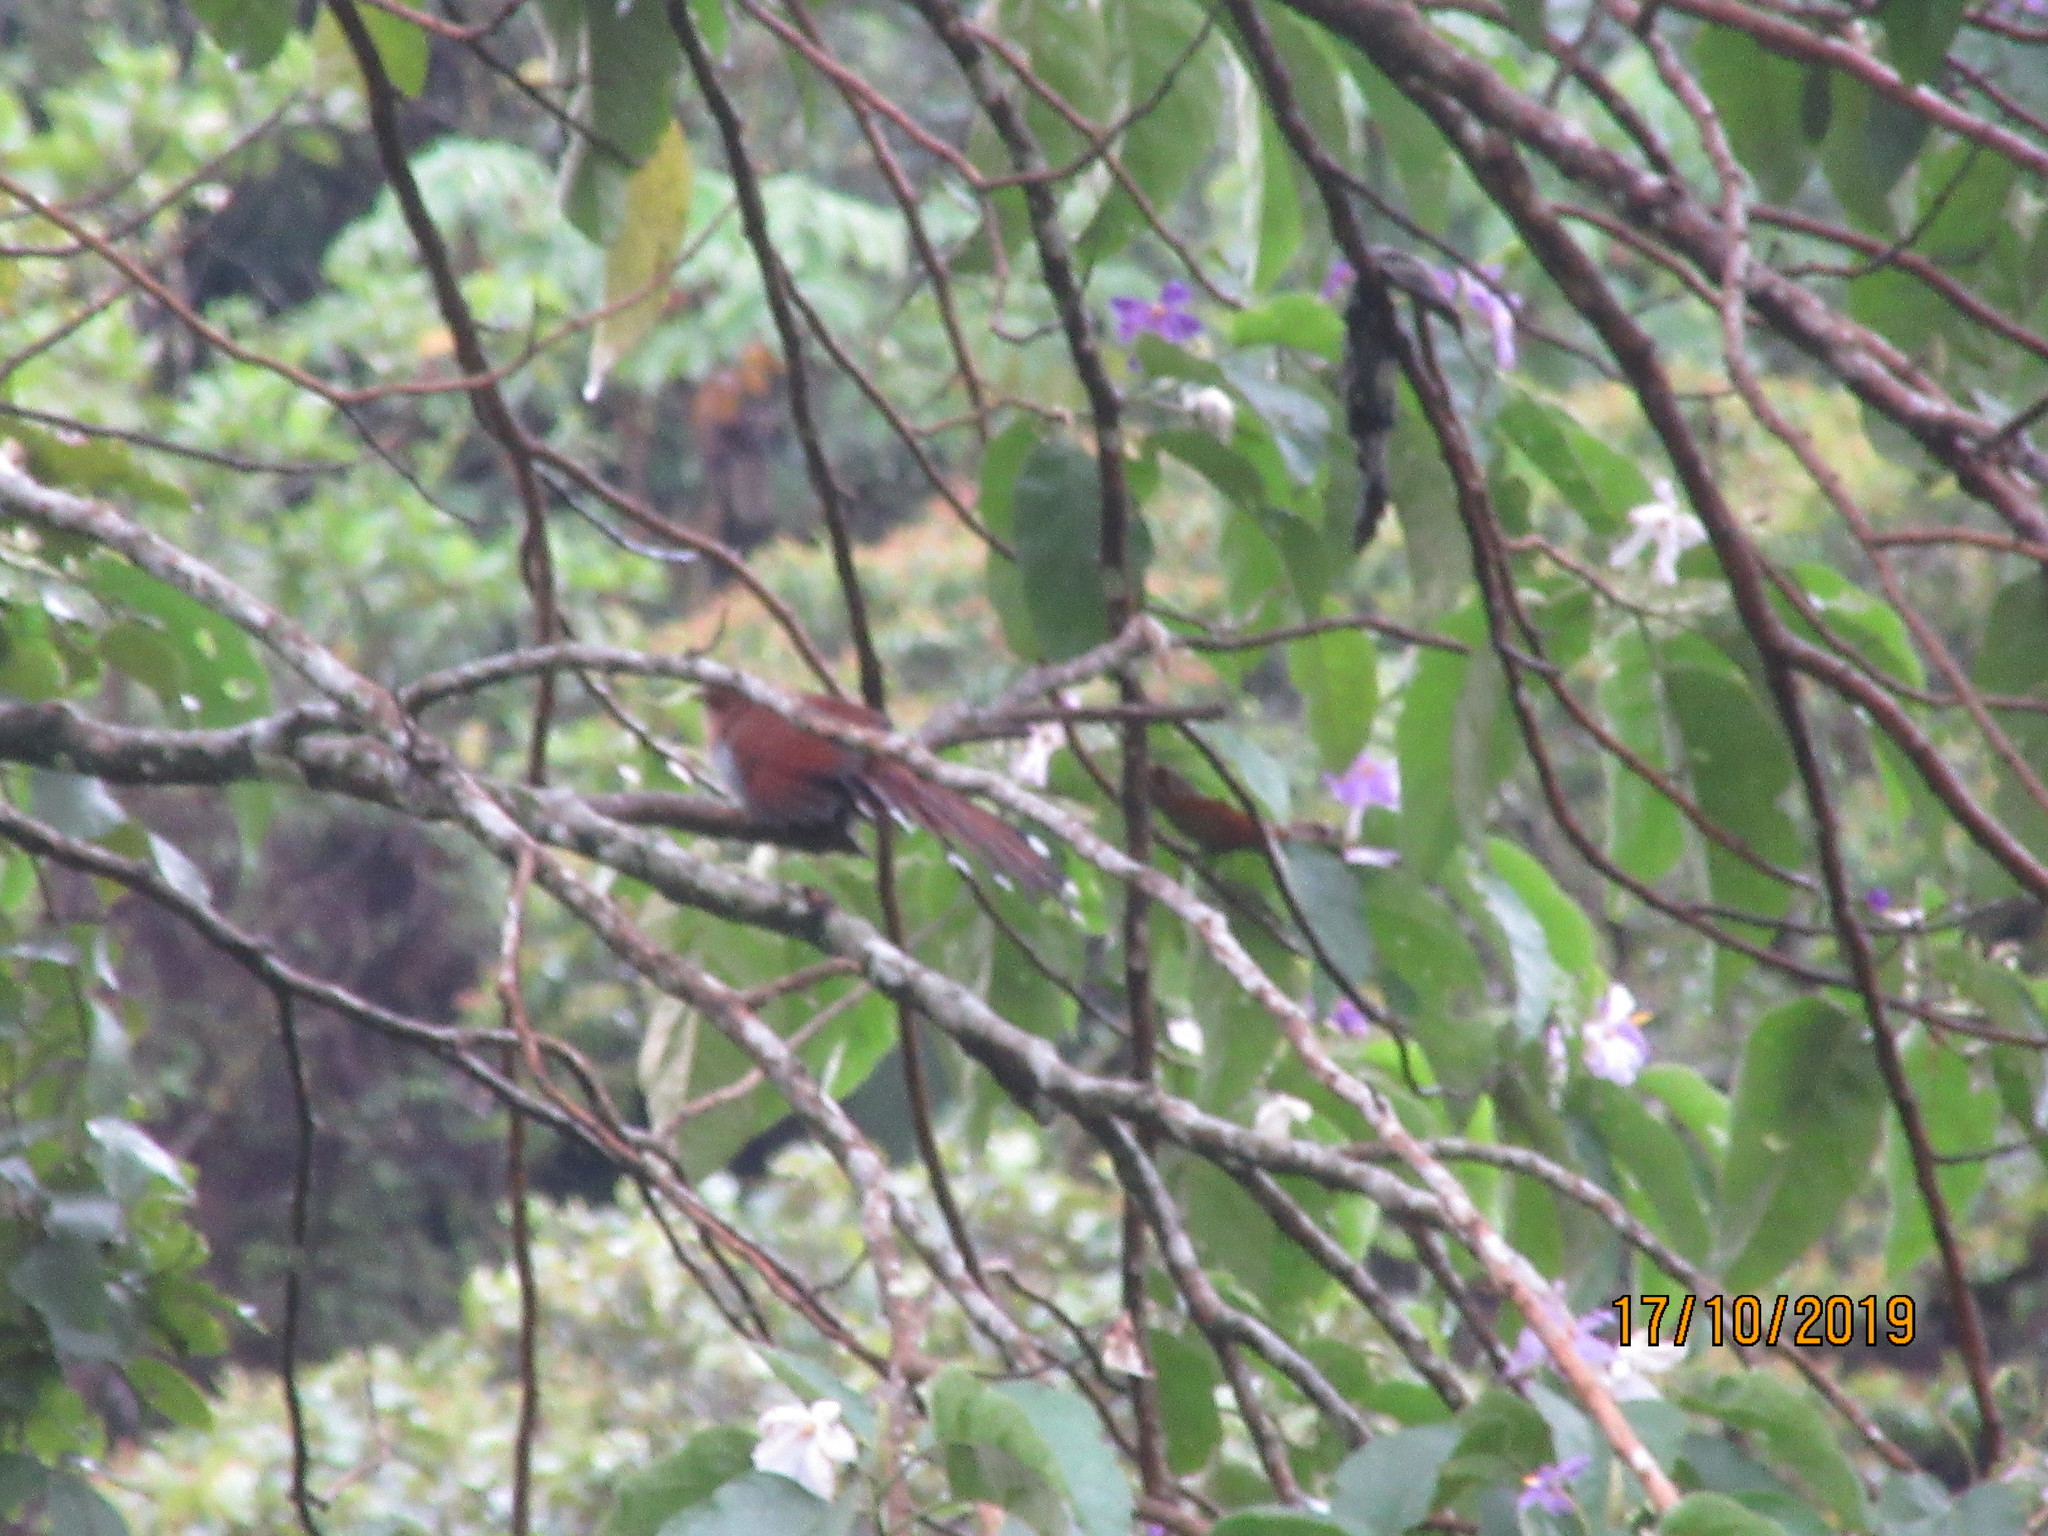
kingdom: Animalia
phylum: Chordata
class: Aves
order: Cuculiformes
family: Cuculidae
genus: Piaya
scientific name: Piaya cayana
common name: Squirrel cuckoo
